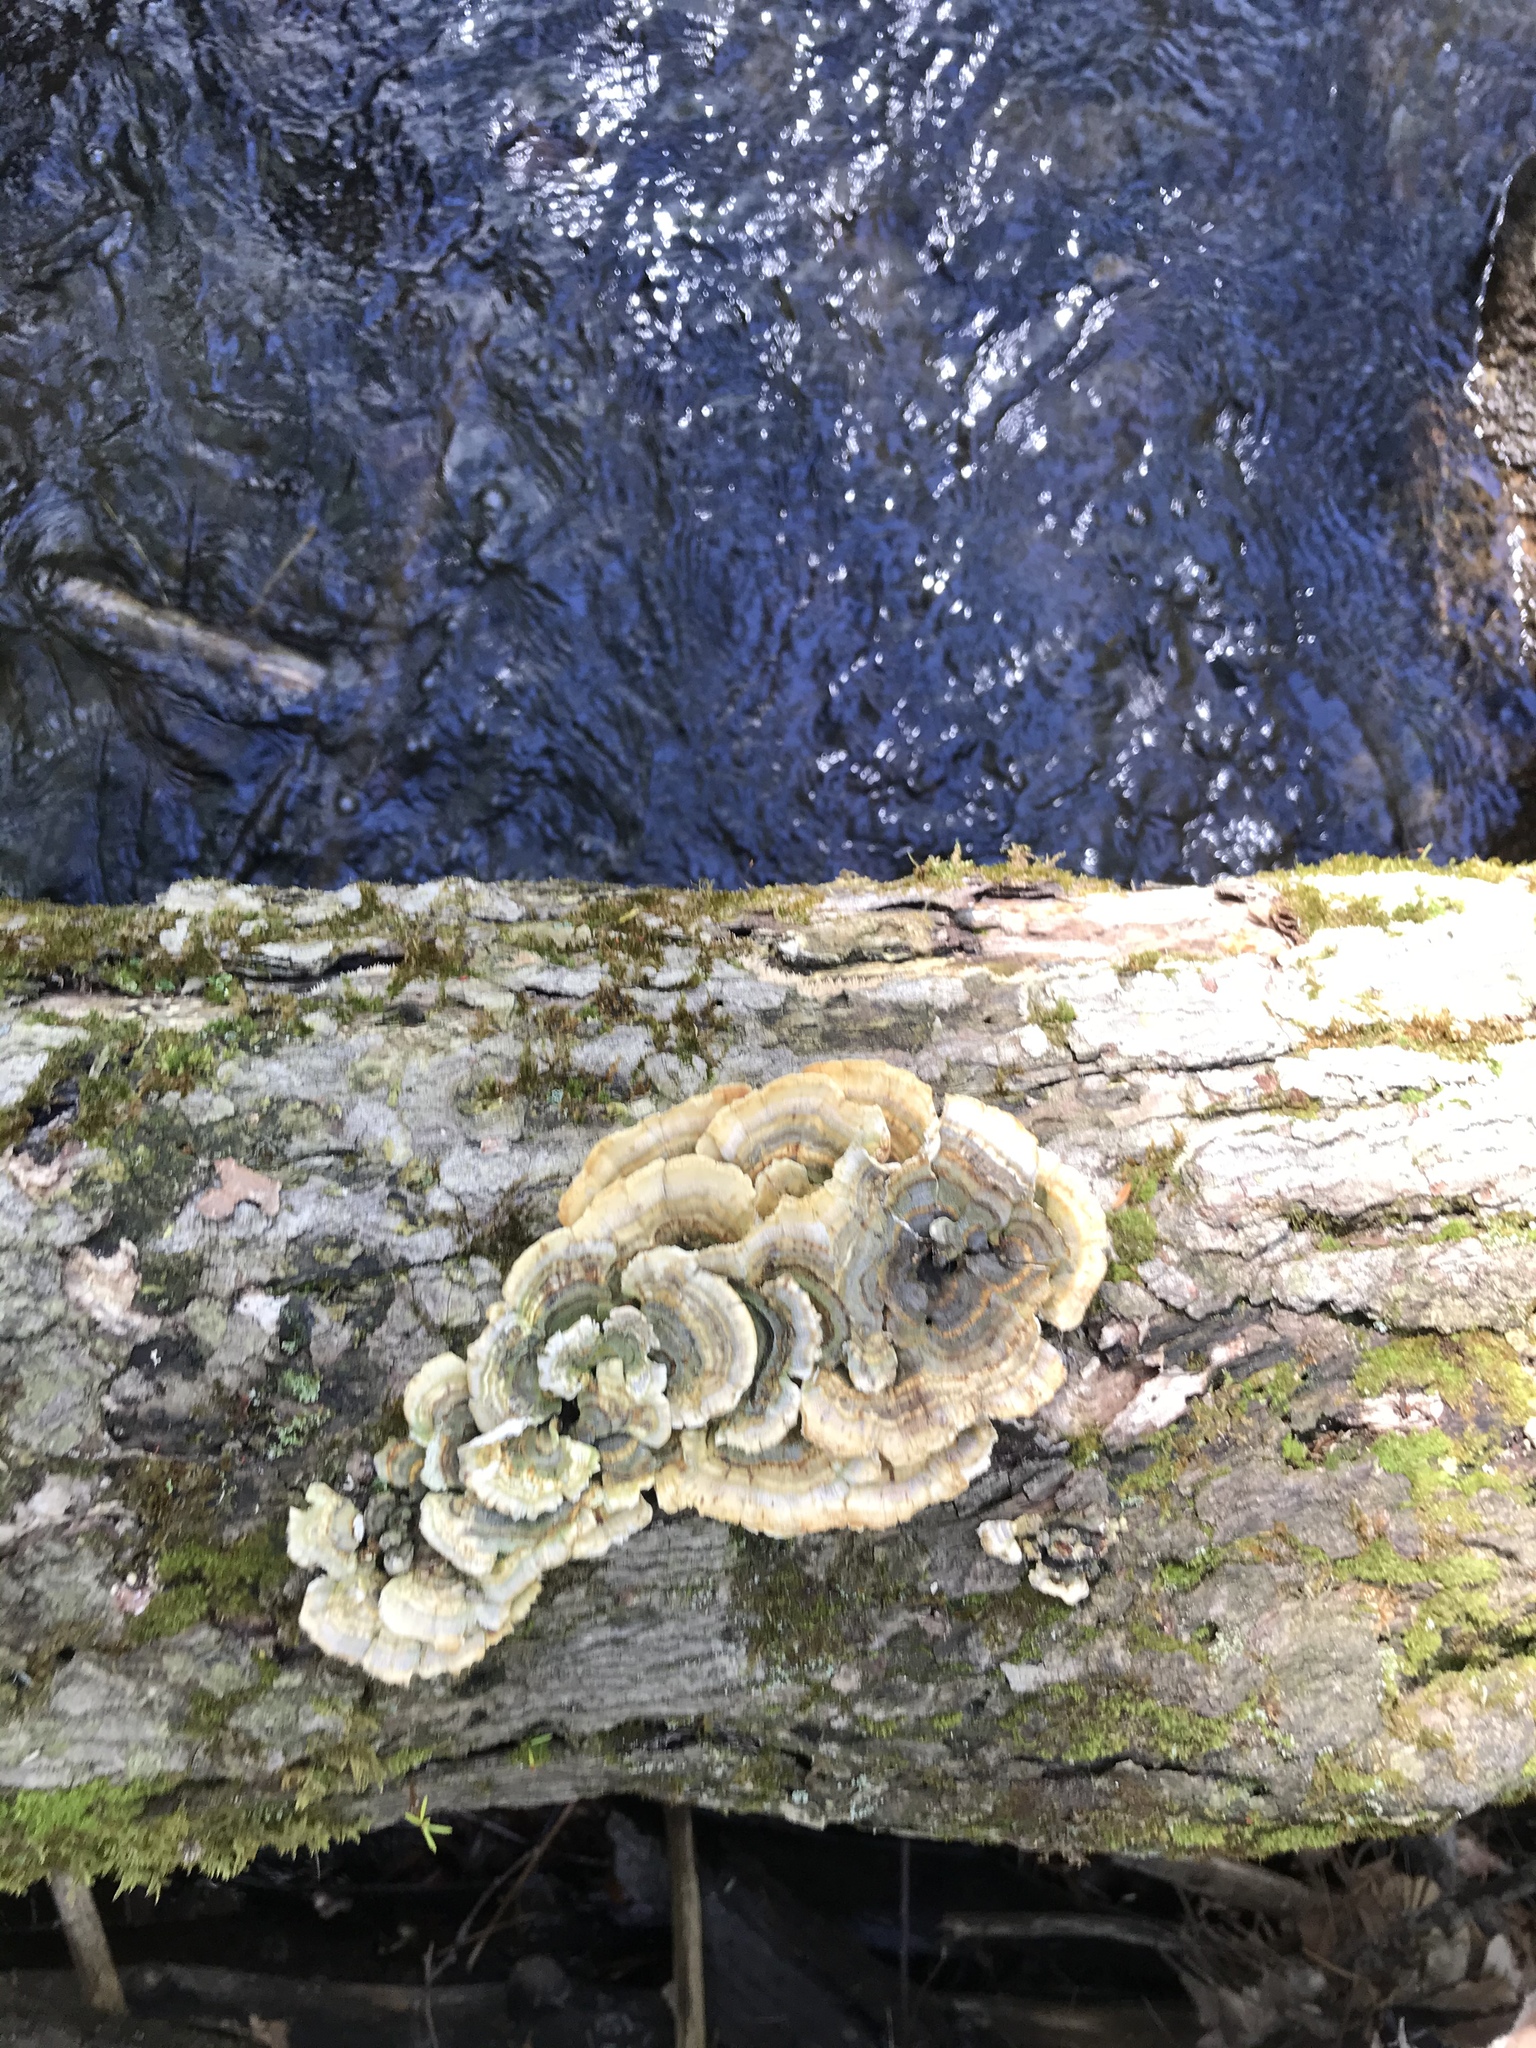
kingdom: Fungi
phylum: Basidiomycota
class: Agaricomycetes
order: Polyporales
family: Polyporaceae
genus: Trametes
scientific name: Trametes versicolor
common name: Turkeytail
